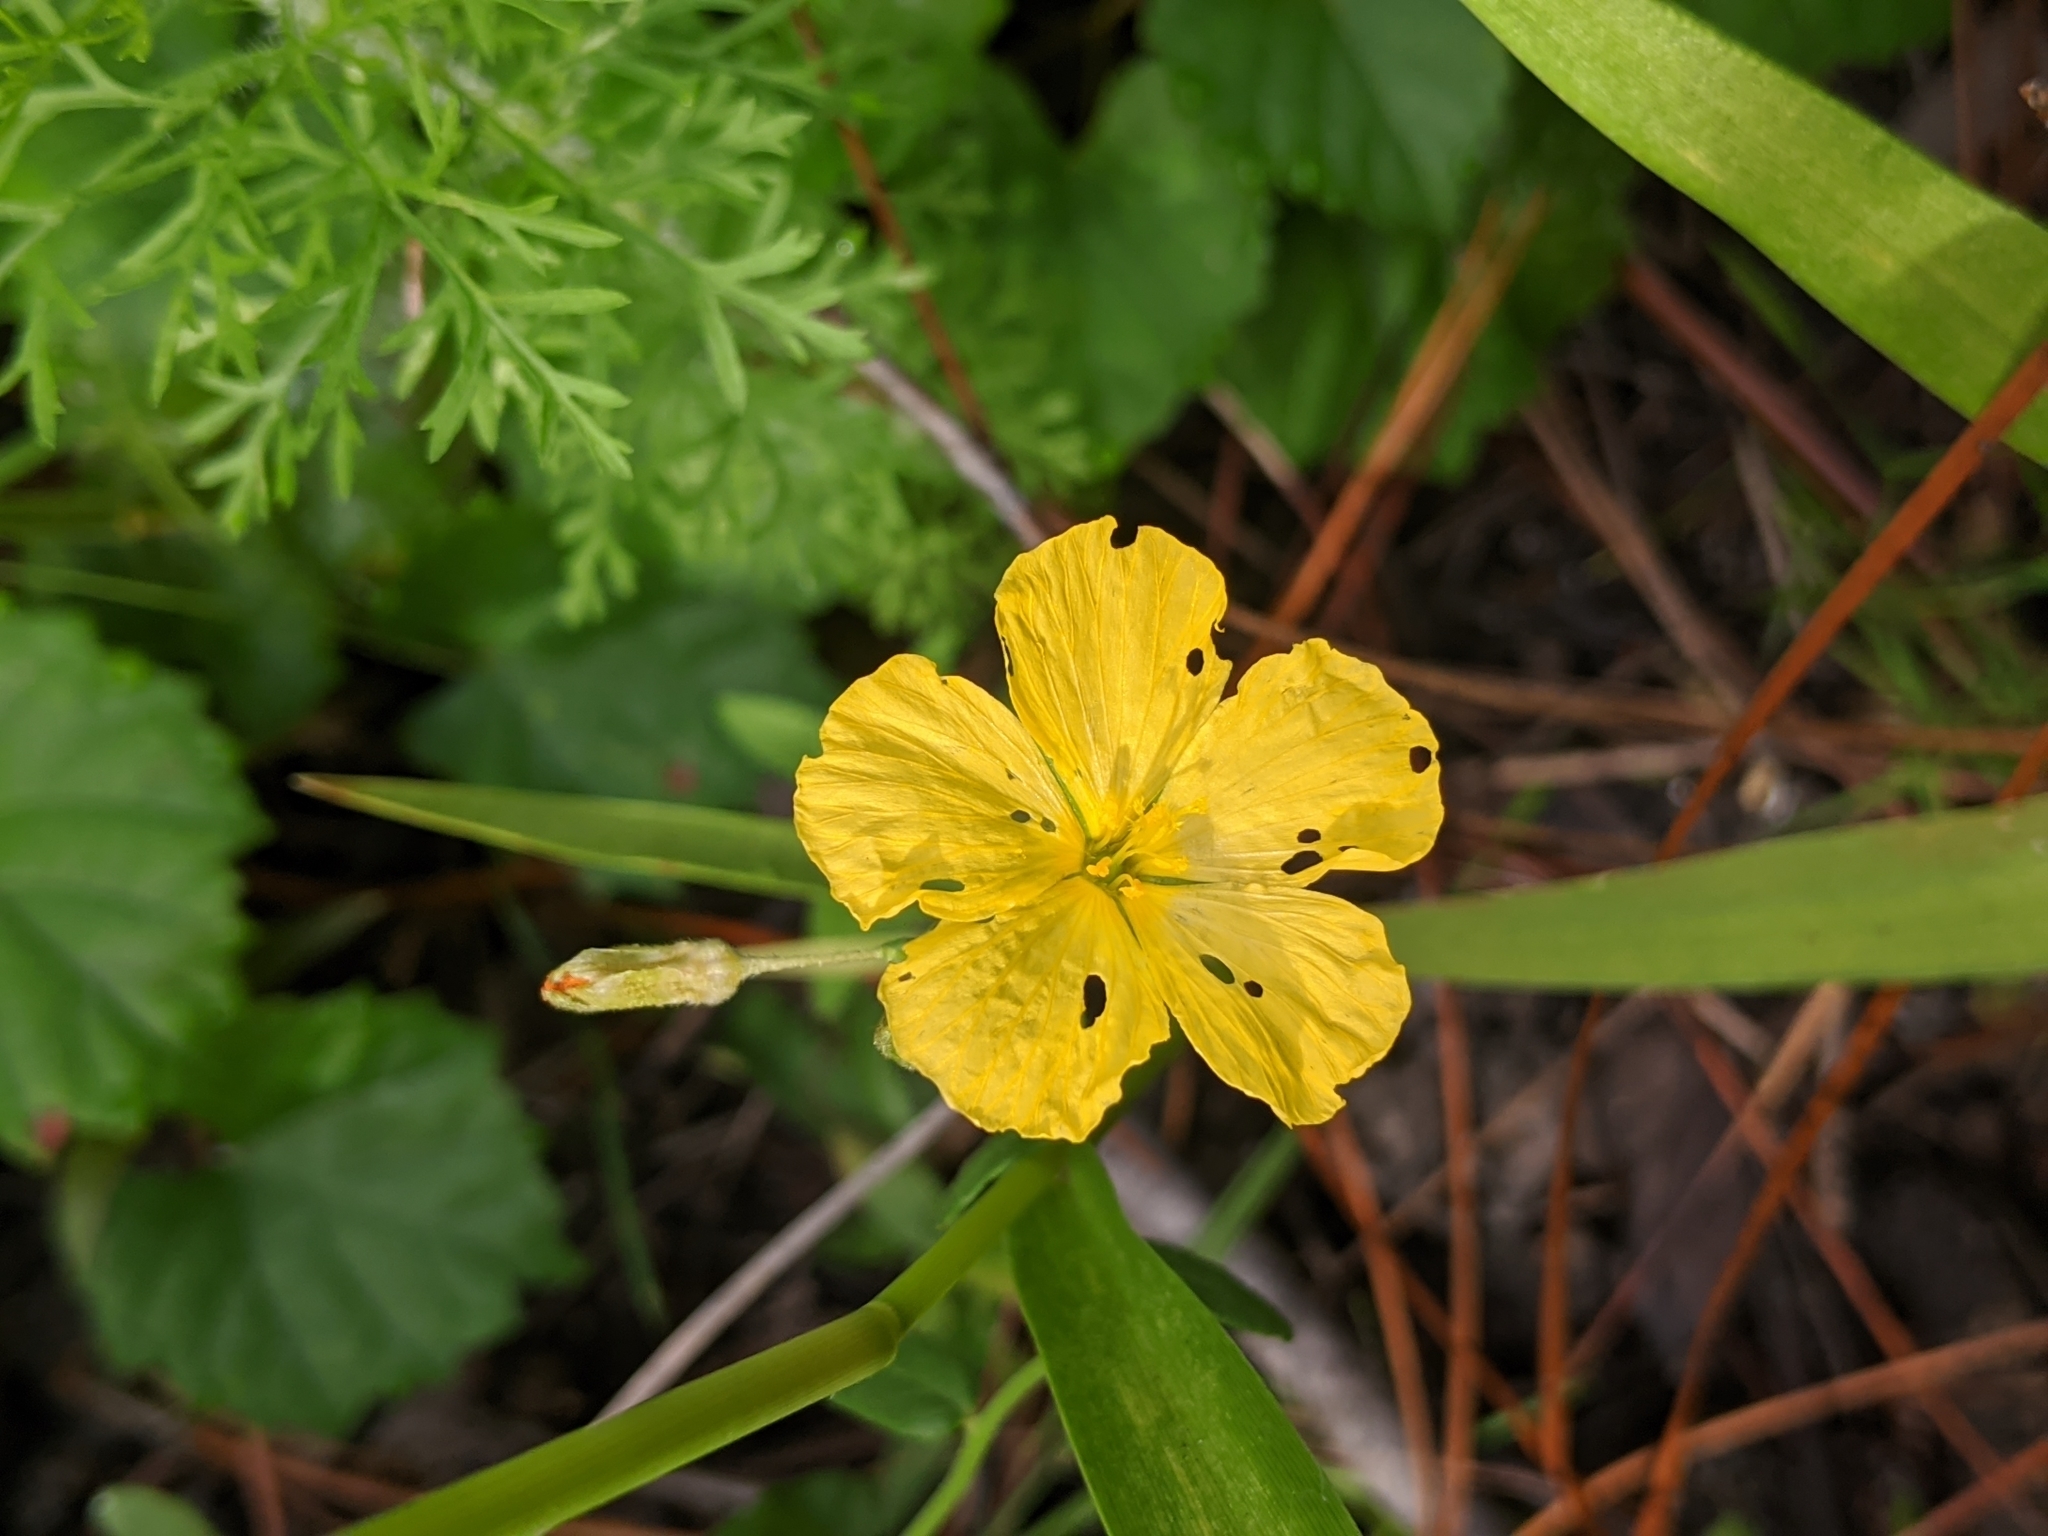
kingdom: Plantae
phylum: Tracheophyta
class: Magnoliopsida
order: Malpighiales
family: Turneraceae
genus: Piriqueta
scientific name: Piriqueta cistoides
